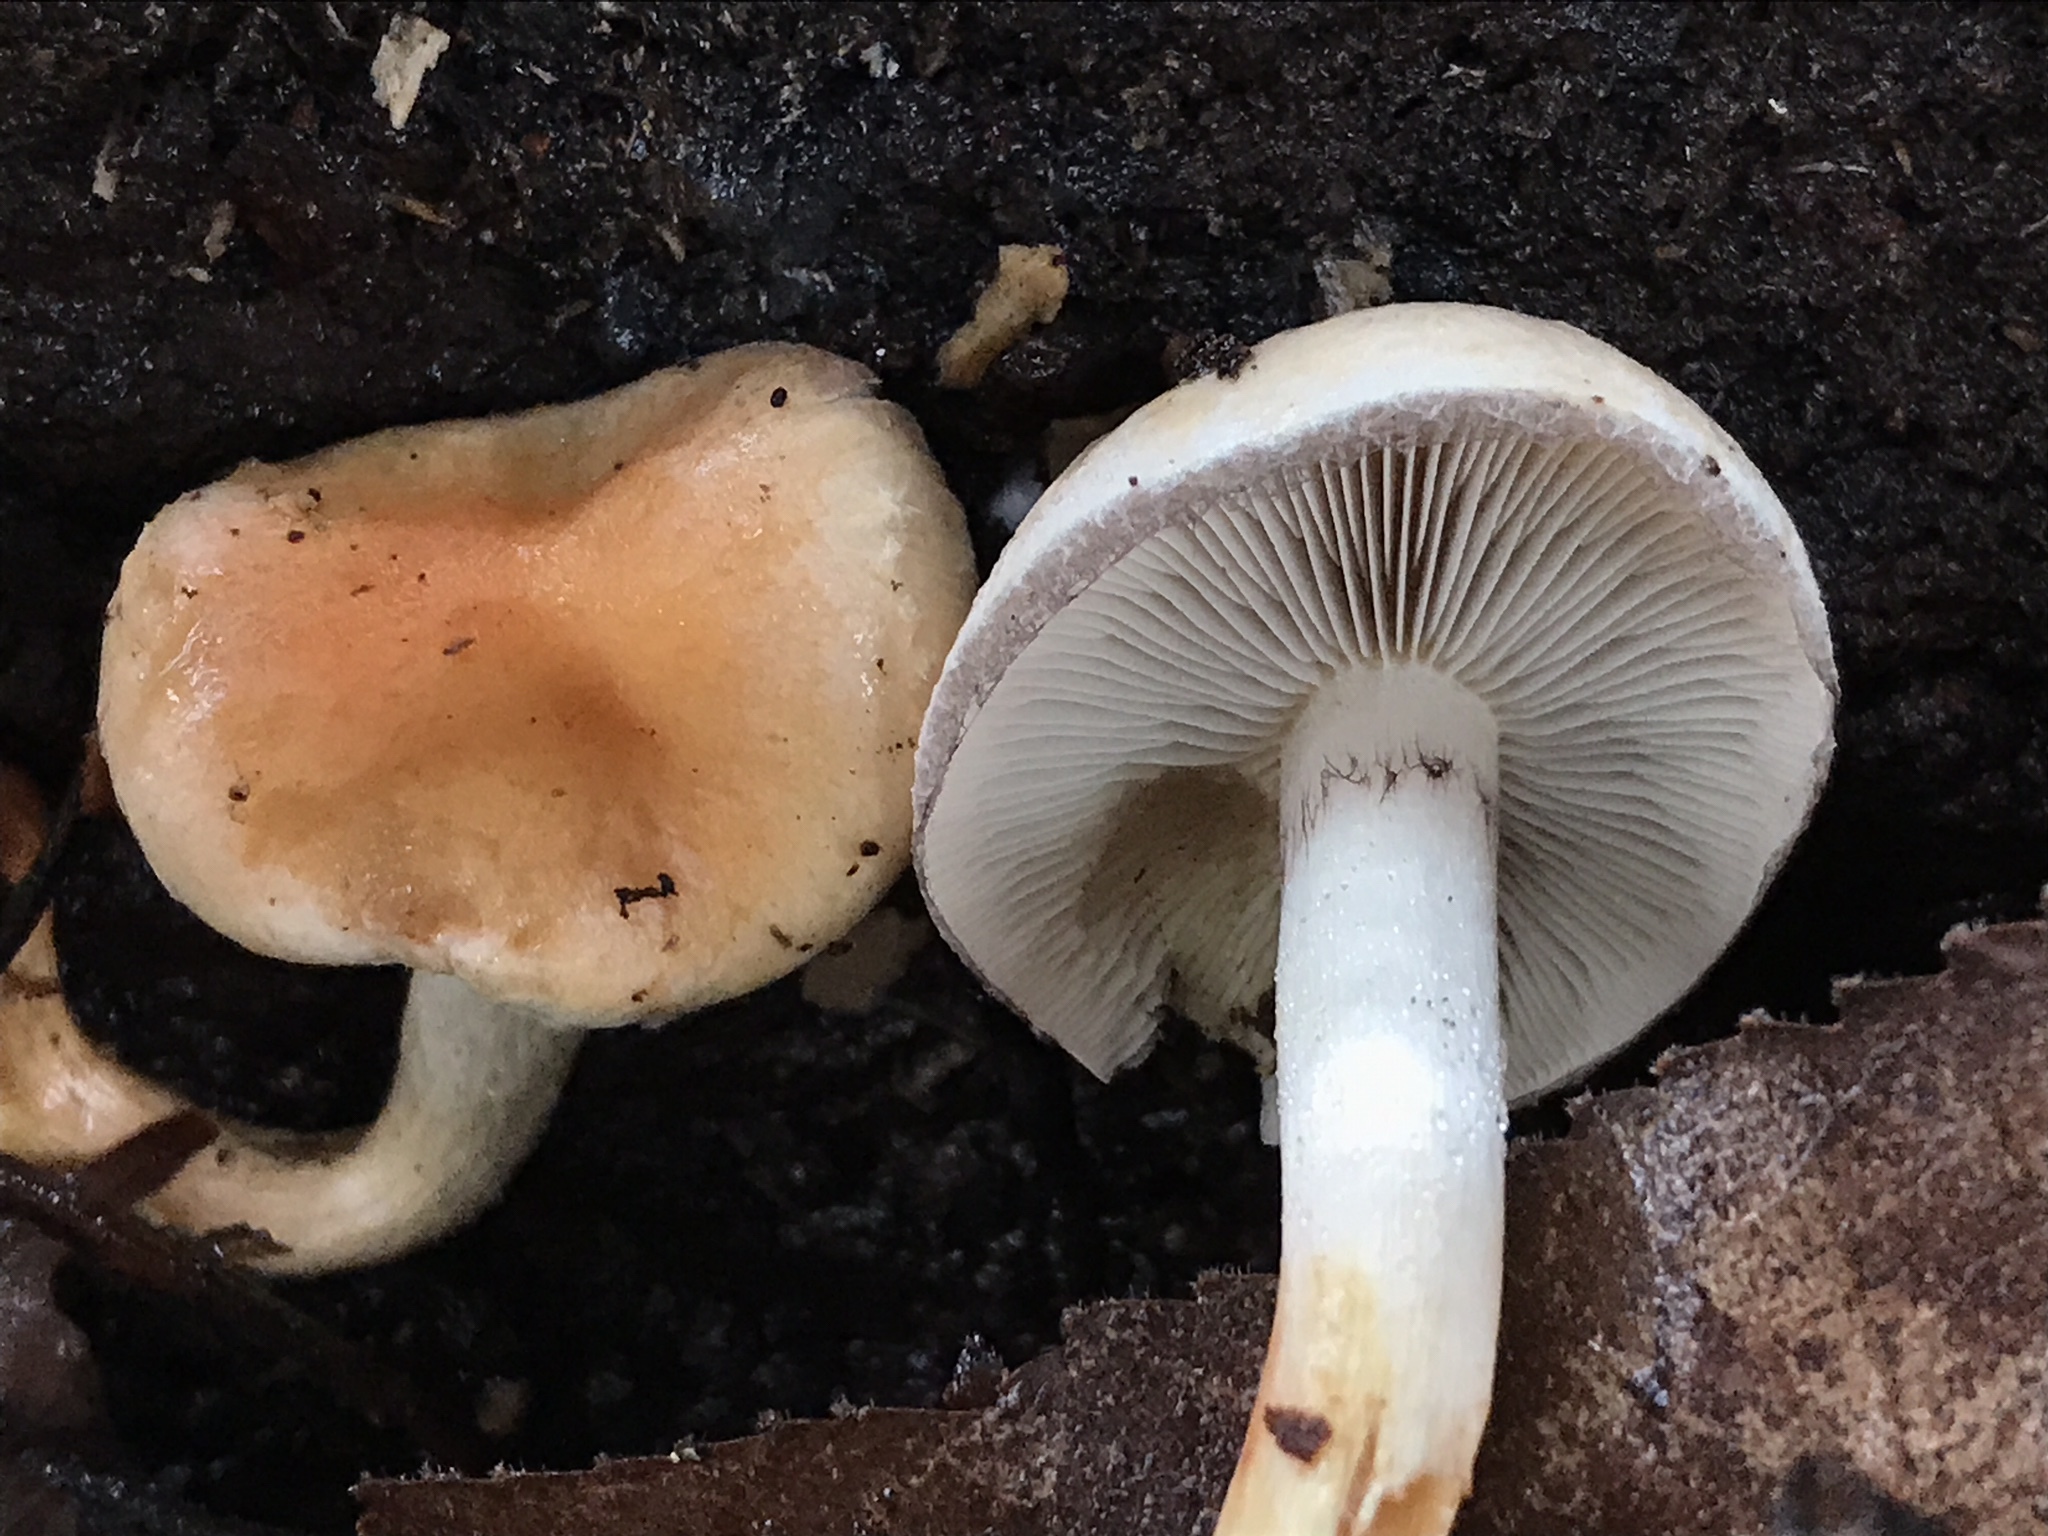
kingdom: Fungi
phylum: Basidiomycota
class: Agaricomycetes
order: Agaricales
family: Strophariaceae
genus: Hypholoma
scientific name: Hypholoma lateritium
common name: Brick caps
